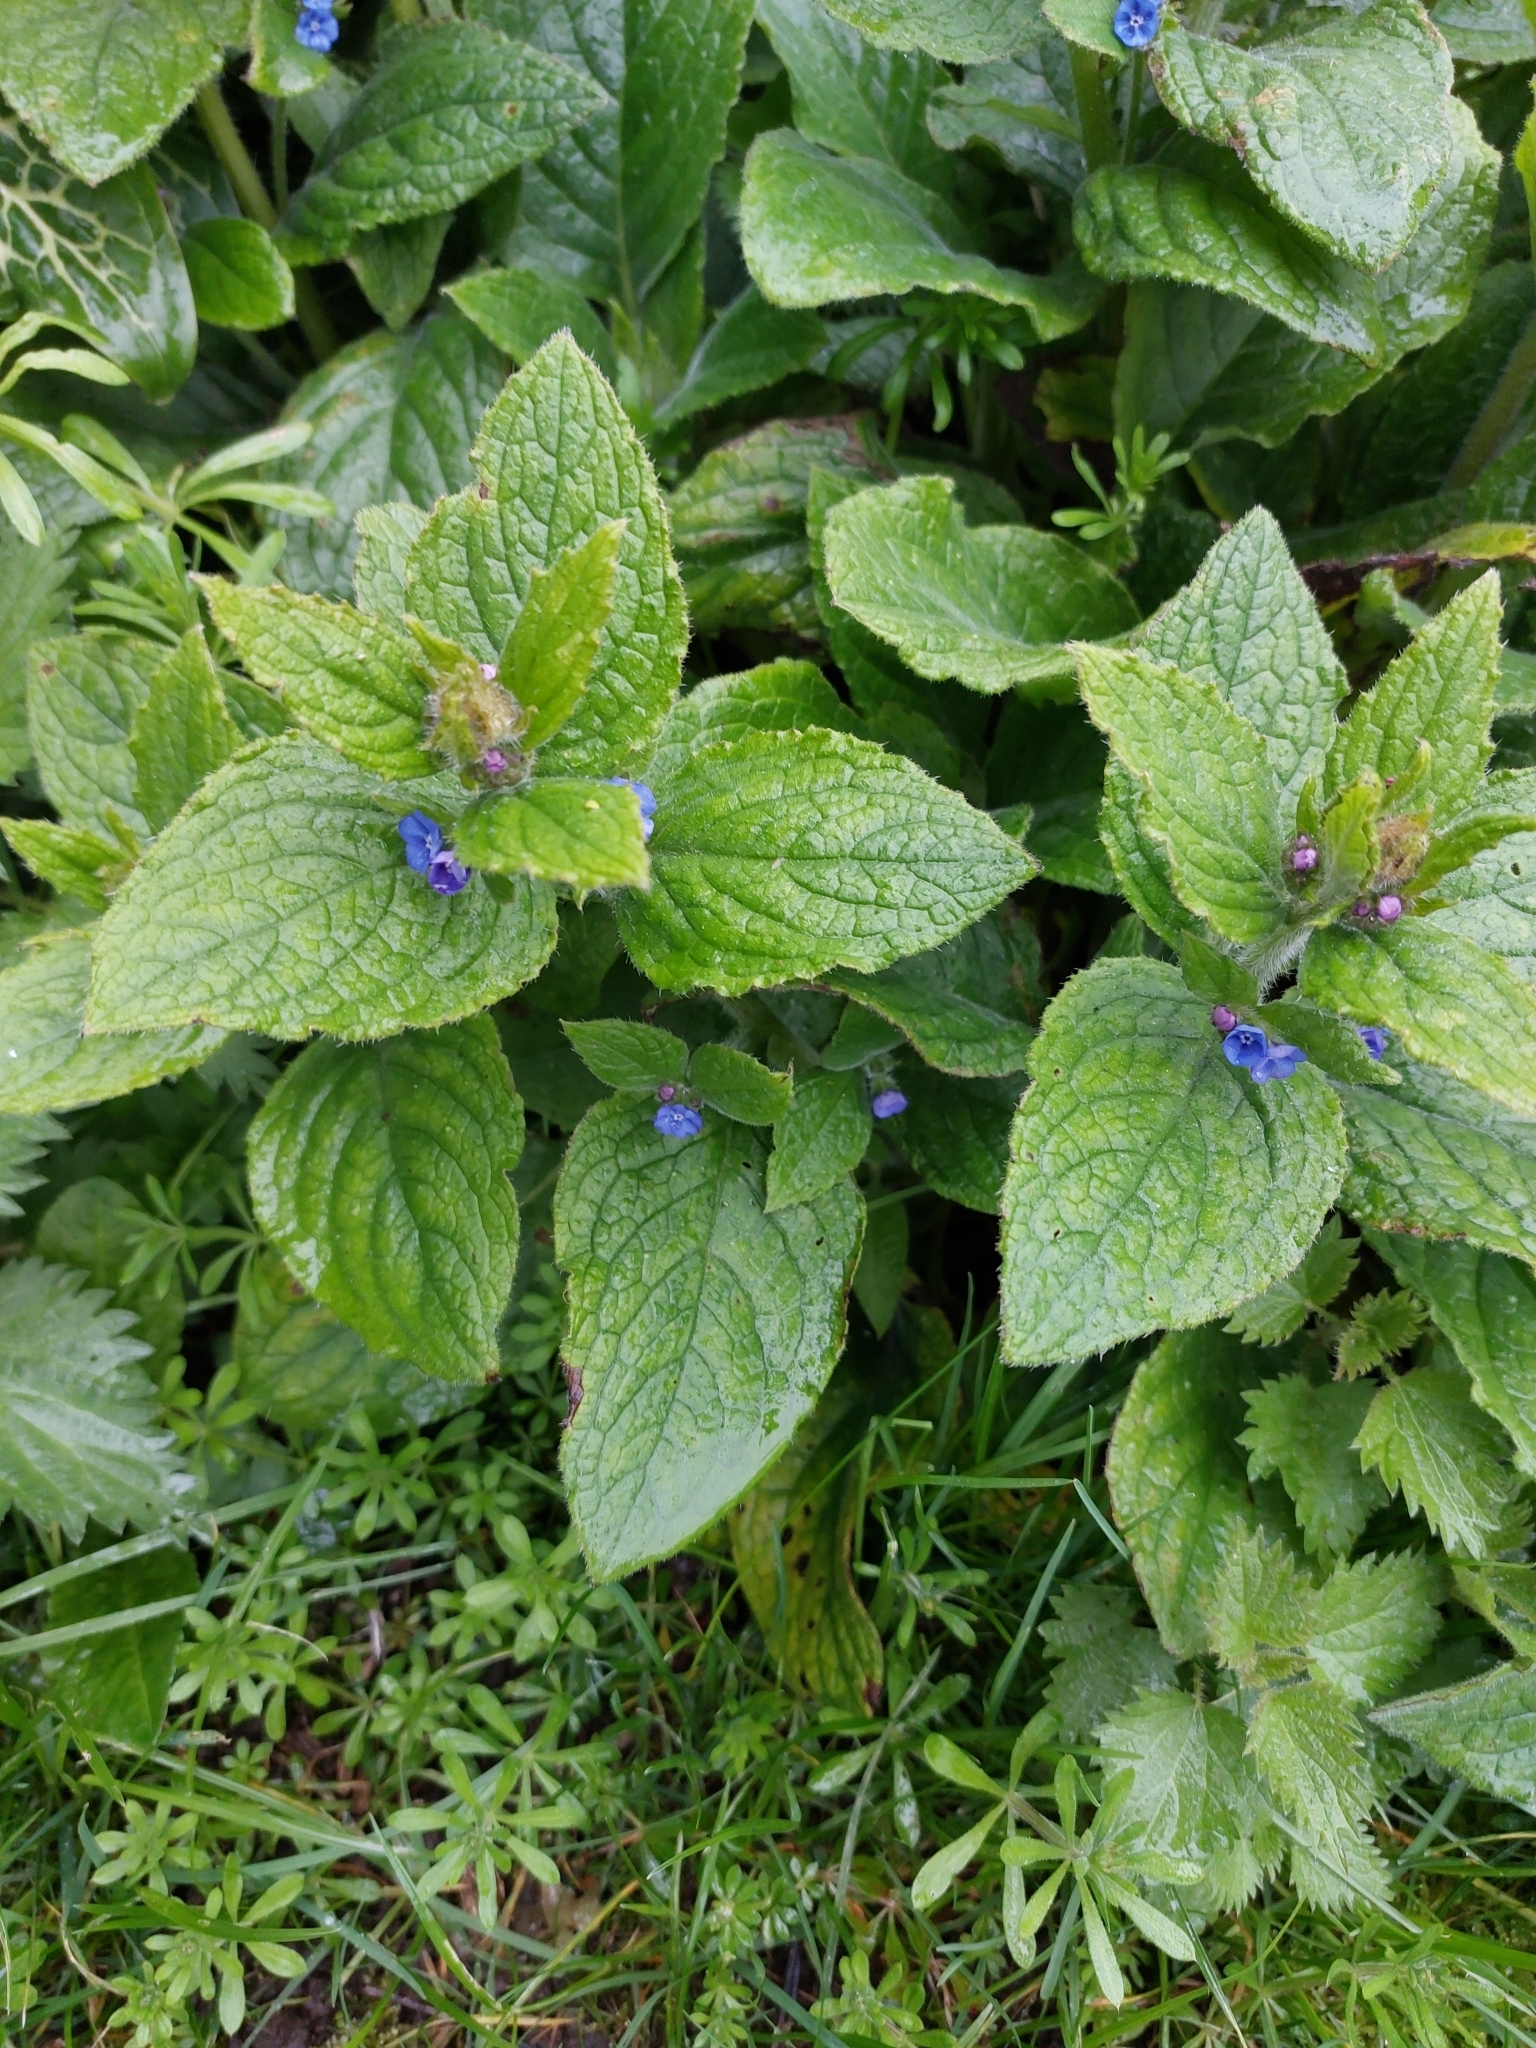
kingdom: Plantae
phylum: Tracheophyta
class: Magnoliopsida
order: Boraginales
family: Boraginaceae
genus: Pentaglottis
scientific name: Pentaglottis sempervirens
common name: Green alkanet
